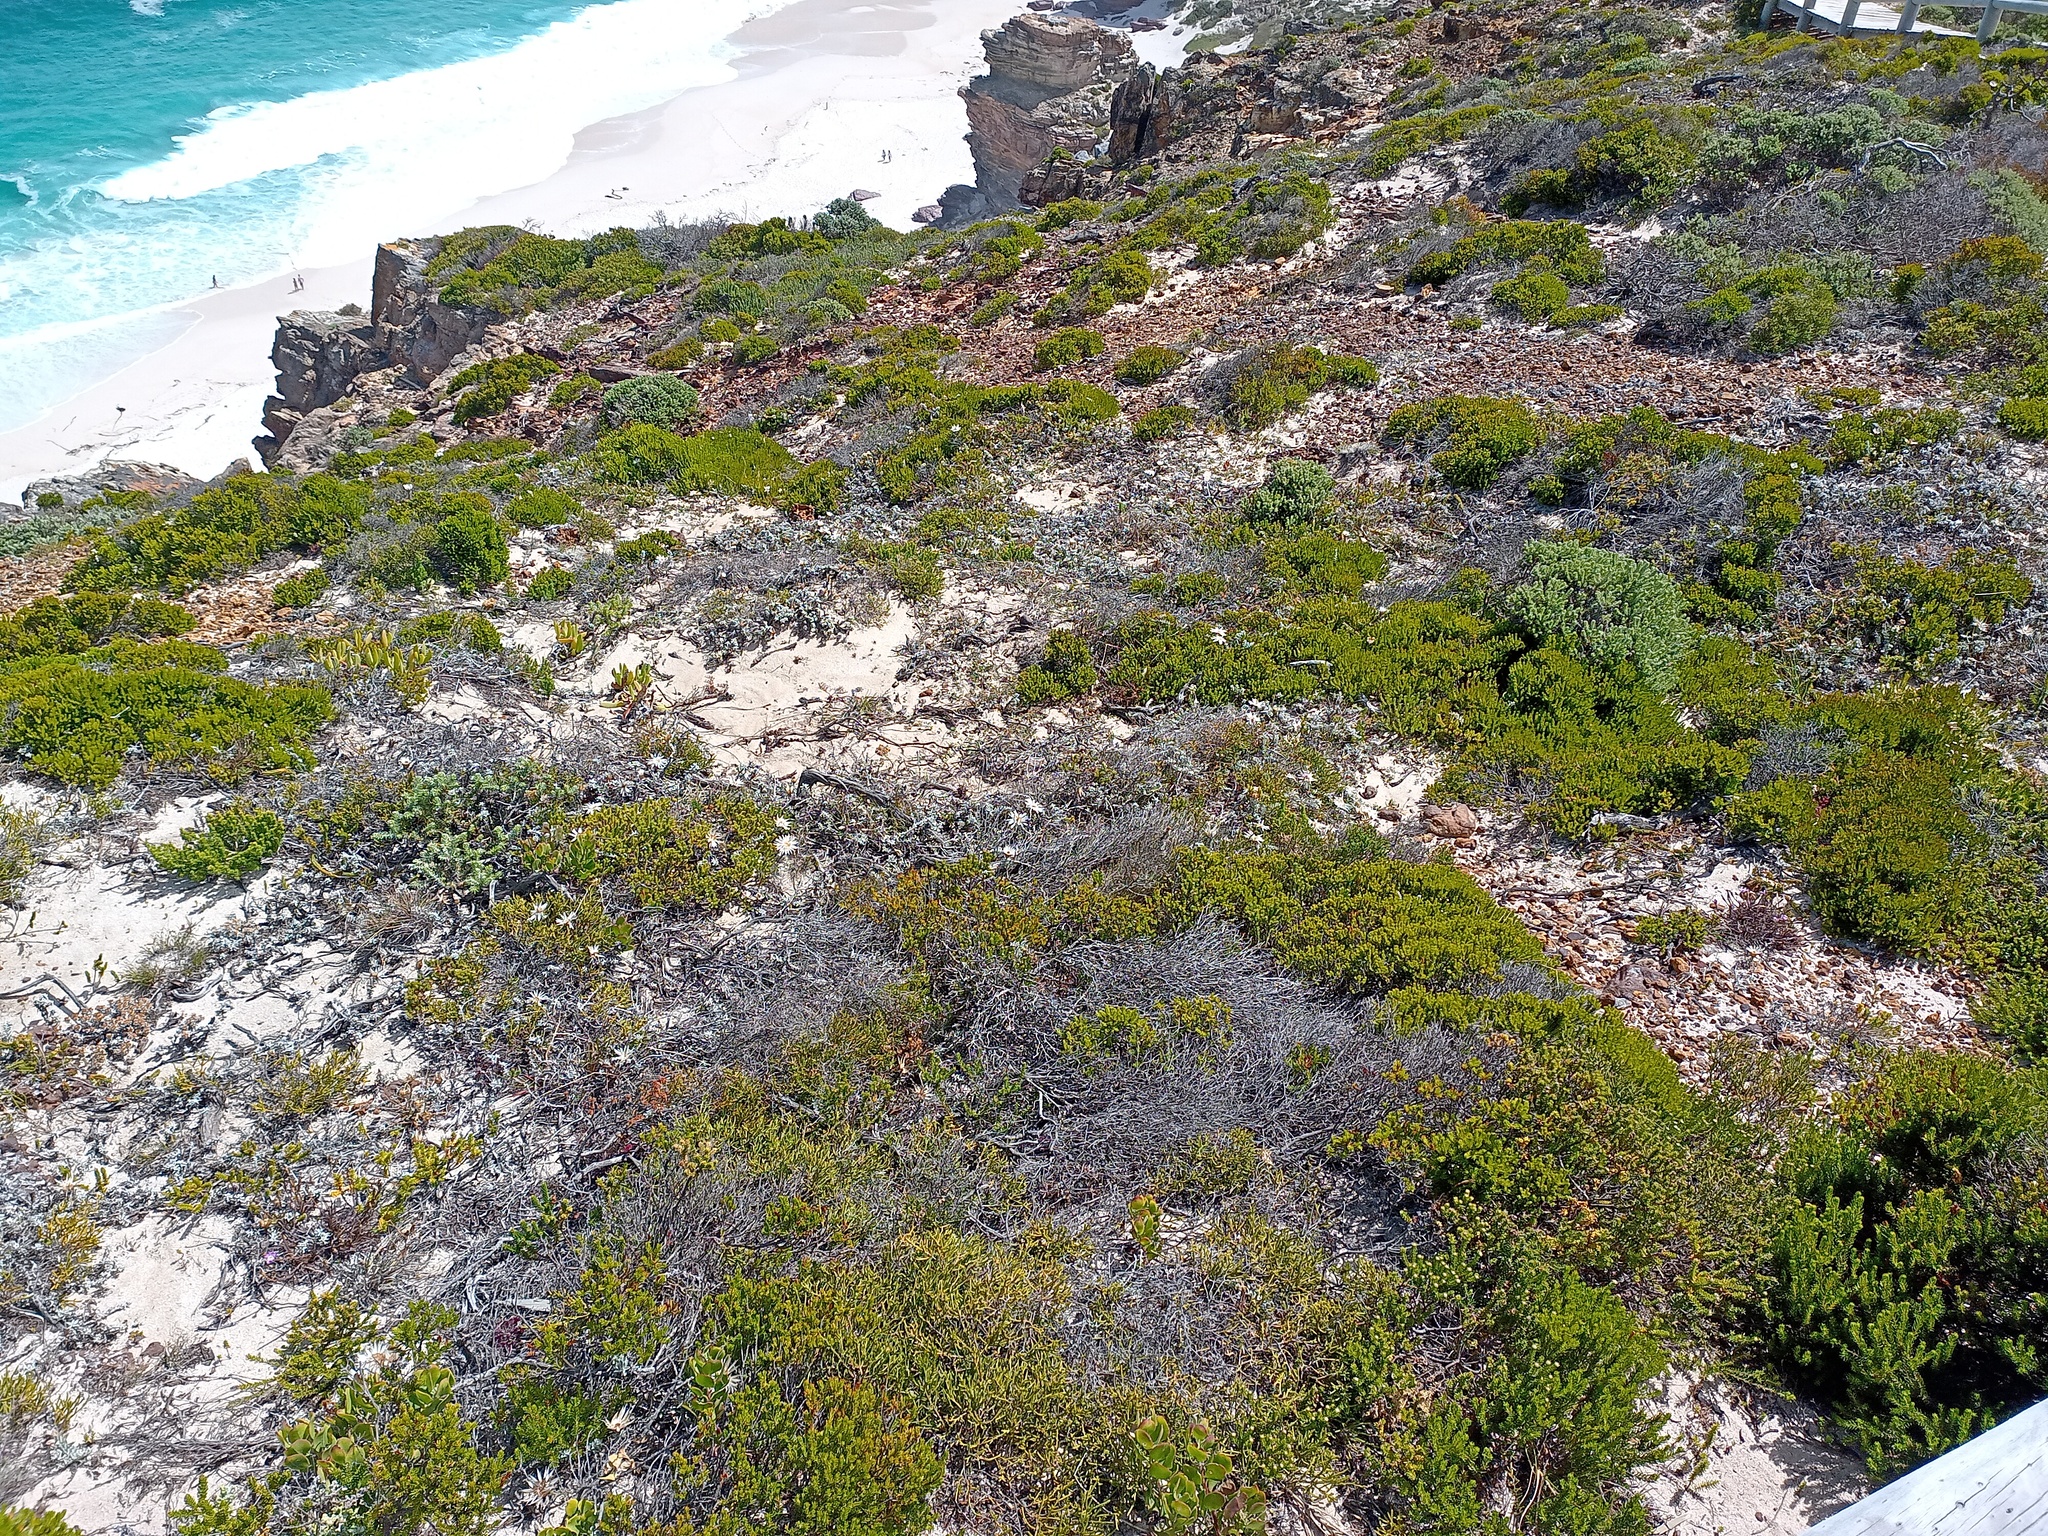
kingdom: Plantae
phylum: Tracheophyta
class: Magnoliopsida
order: Asterales
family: Asteraceae
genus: Helichrysum
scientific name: Helichrysum retortum
